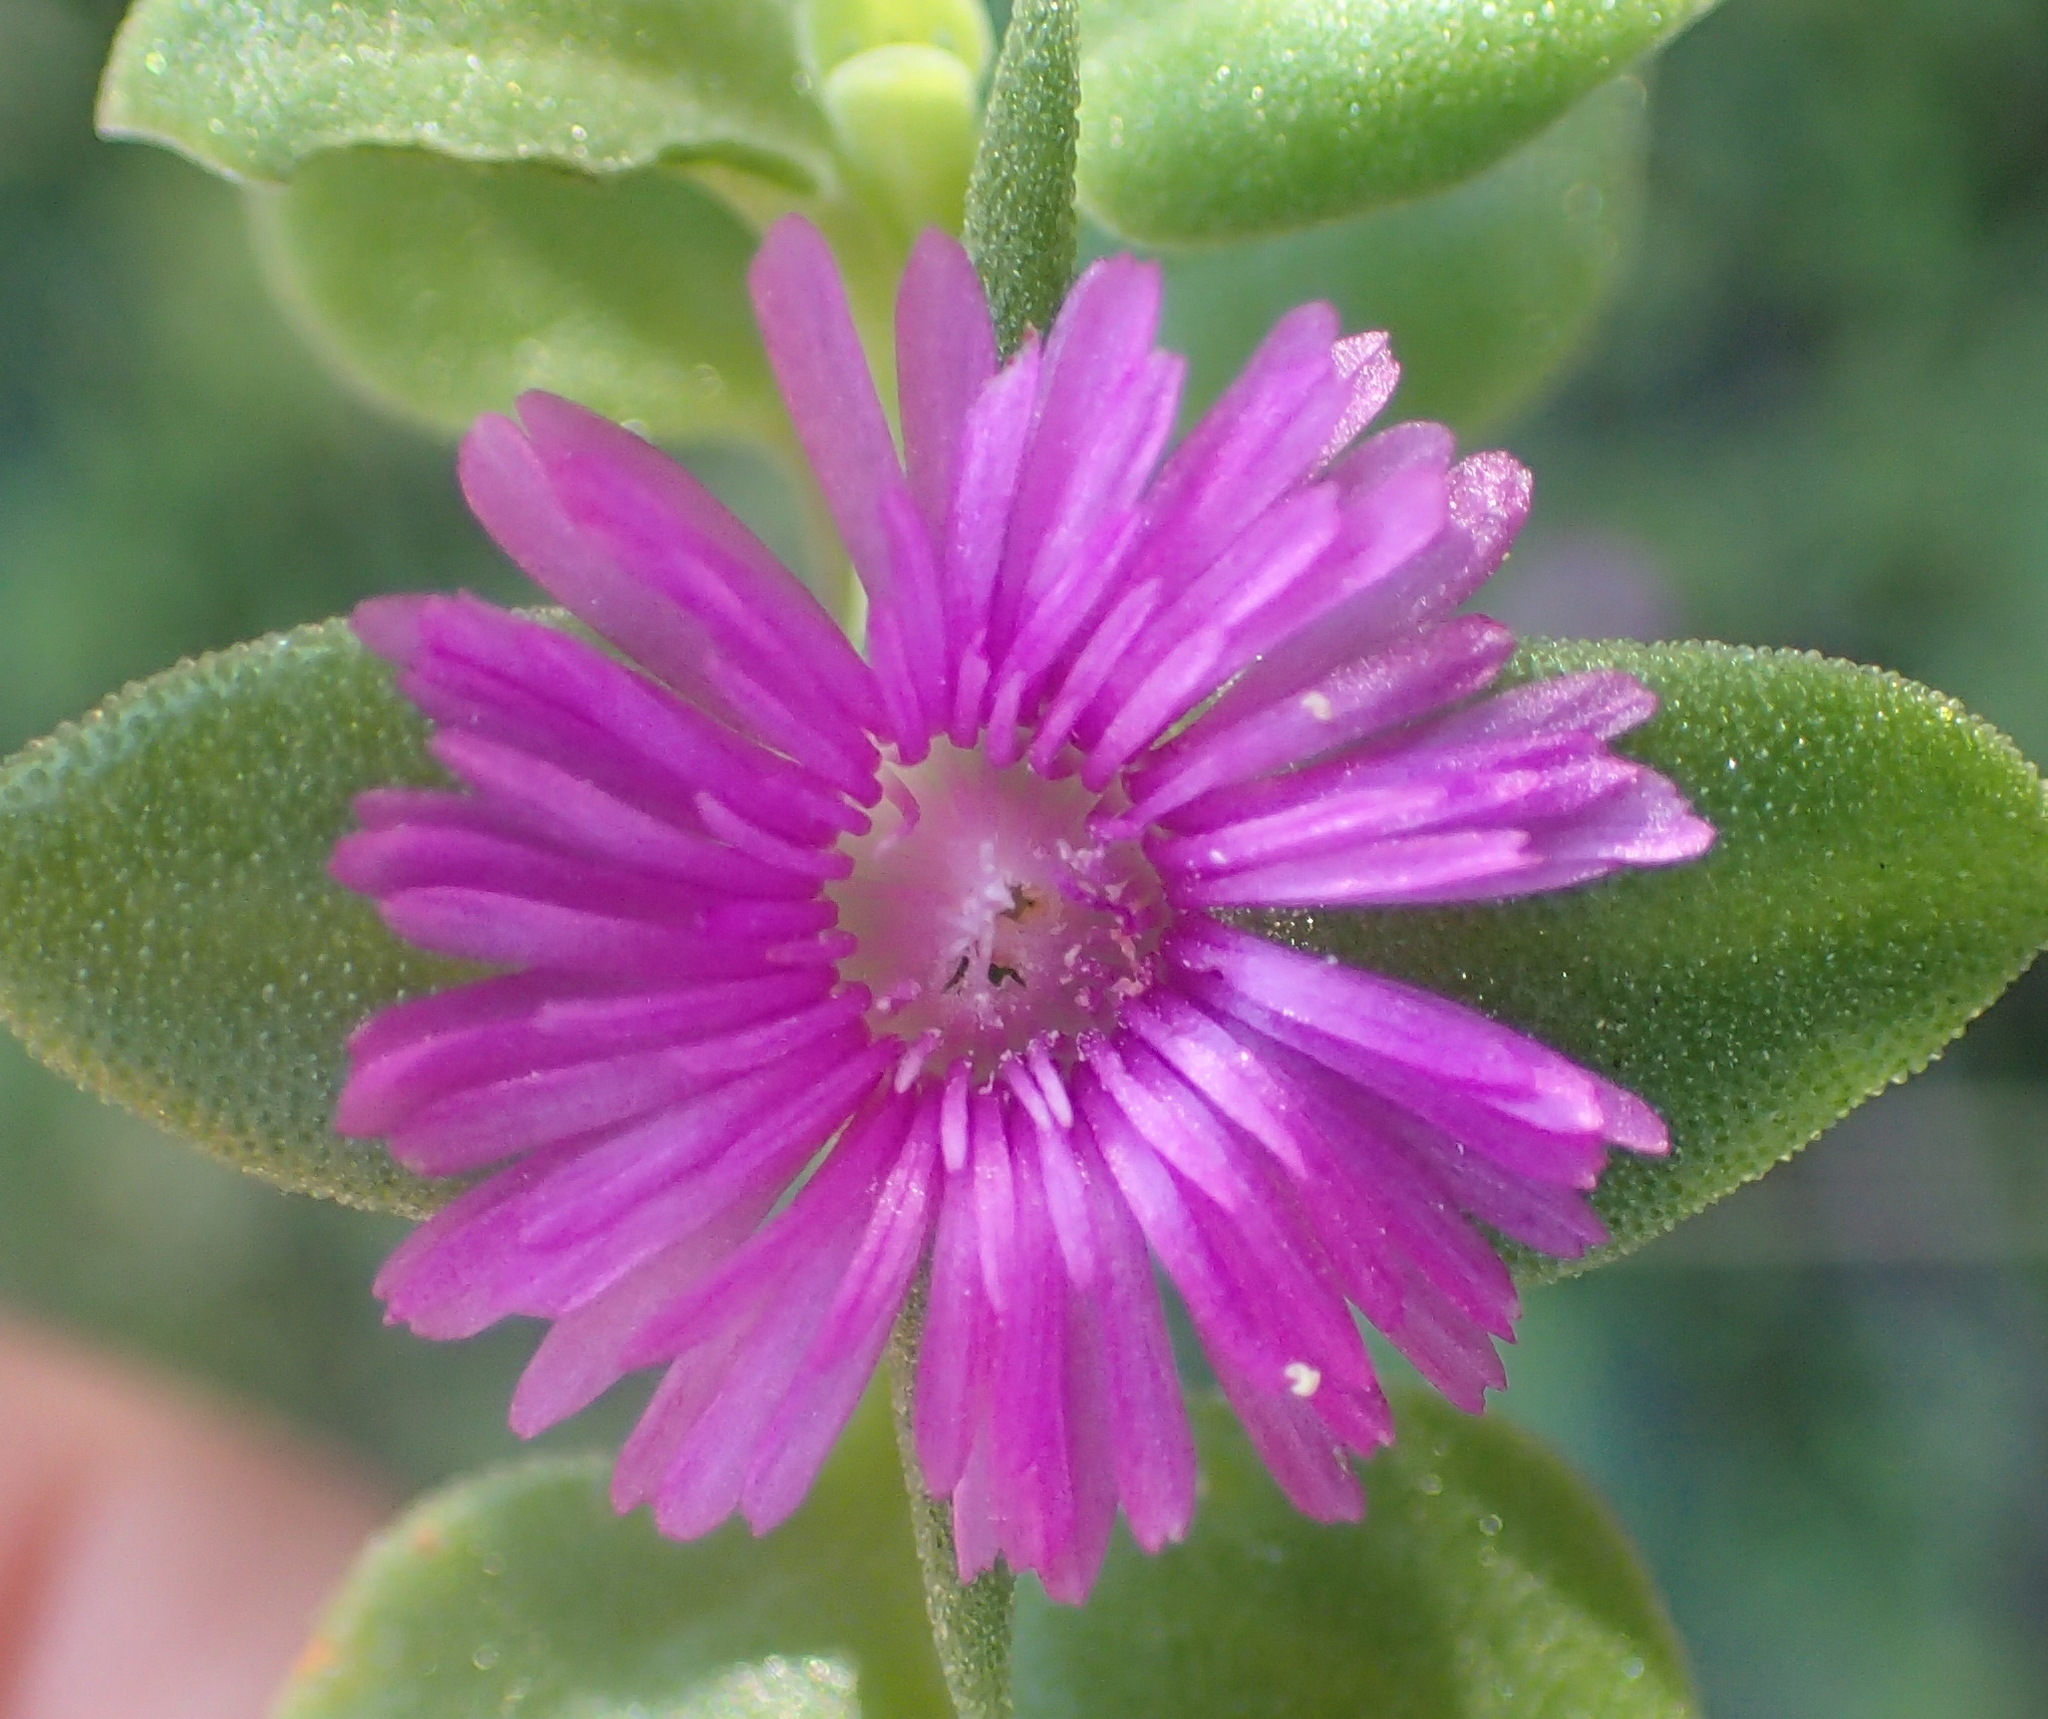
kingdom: Plantae
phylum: Tracheophyta
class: Magnoliopsida
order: Caryophyllales
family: Aizoaceae
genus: Mesembryanthemum
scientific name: Mesembryanthemum cordifolium
